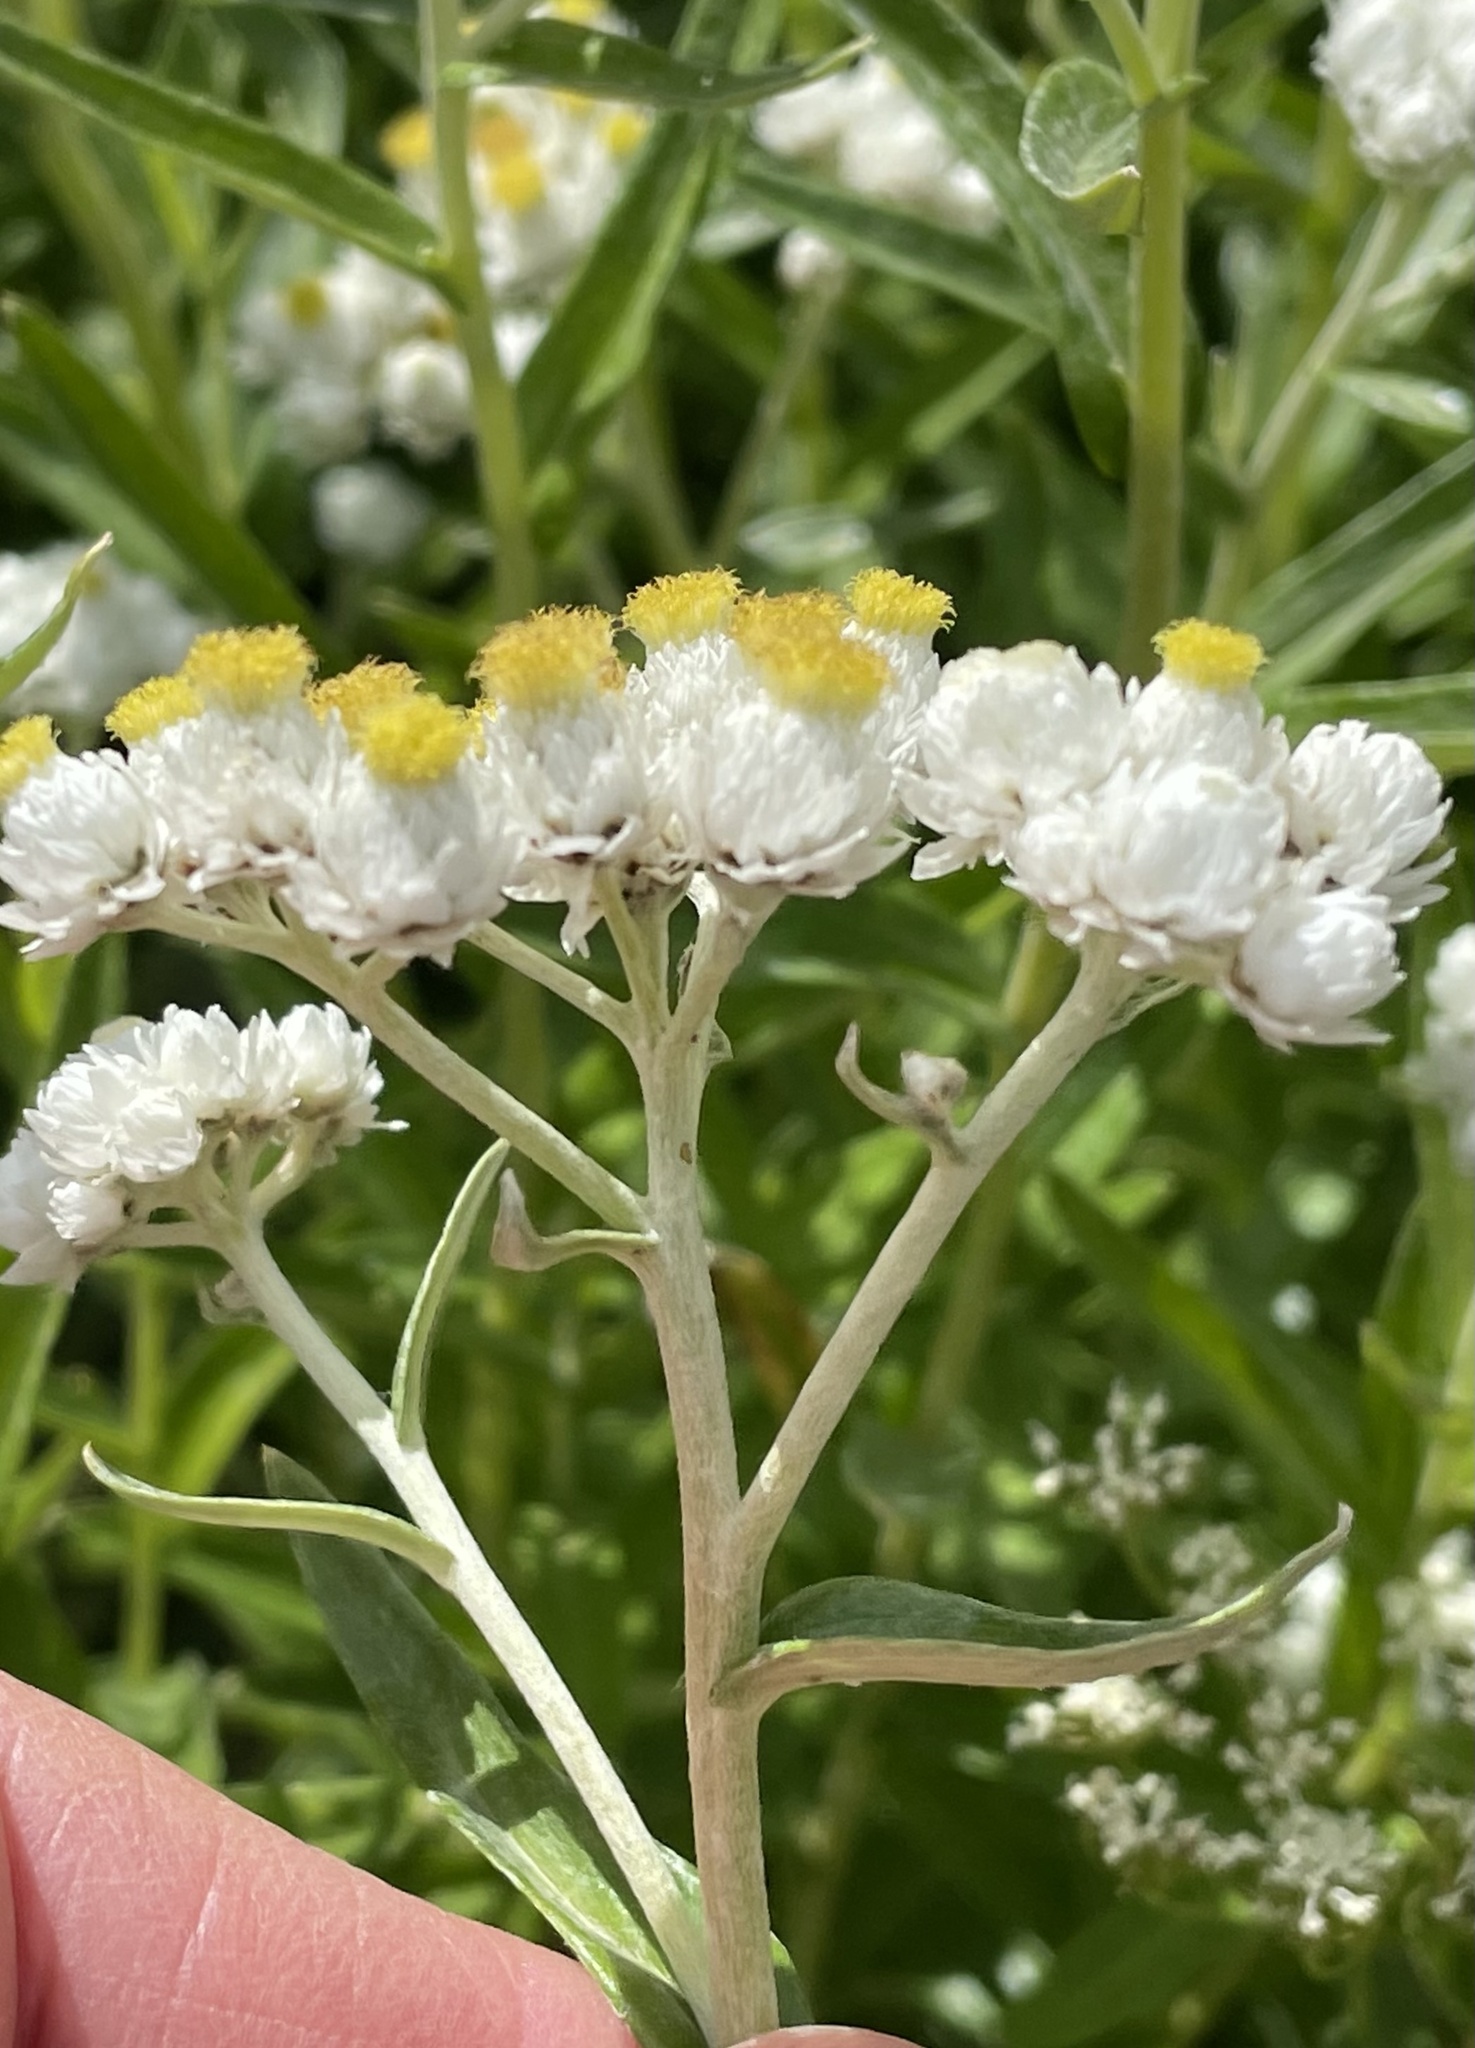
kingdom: Plantae
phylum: Tracheophyta
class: Magnoliopsida
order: Asterales
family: Asteraceae
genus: Anaphalis
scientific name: Anaphalis margaritacea
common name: Pearly everlasting
